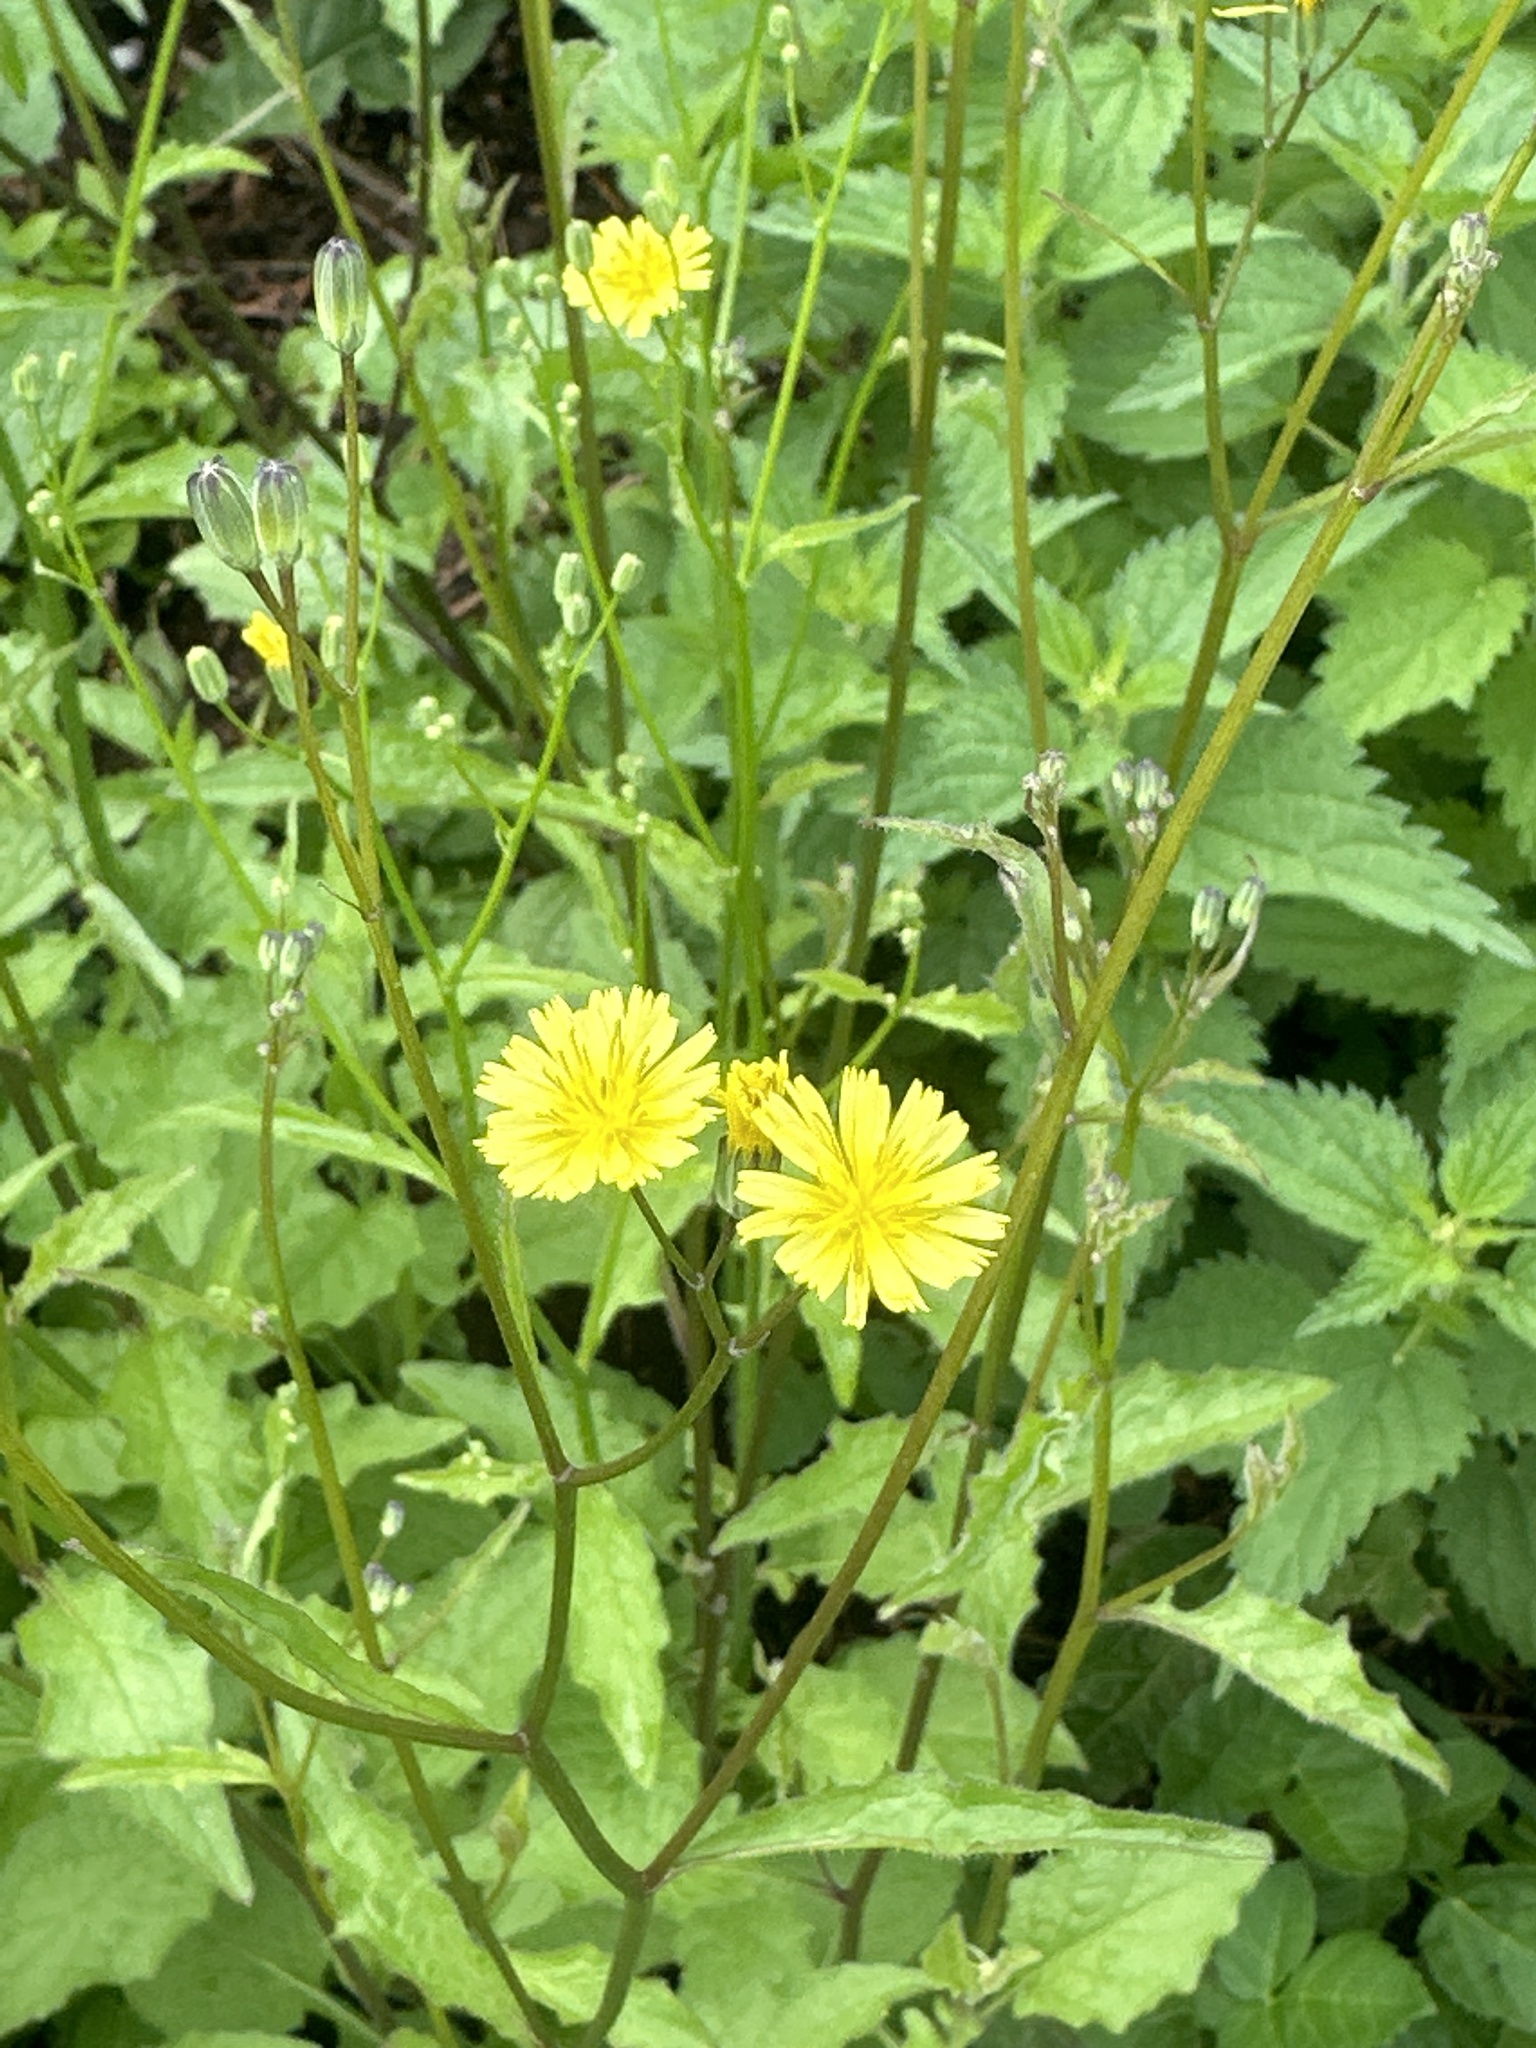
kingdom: Plantae
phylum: Tracheophyta
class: Magnoliopsida
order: Asterales
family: Asteraceae
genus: Lapsana
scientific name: Lapsana communis
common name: Nipplewort
